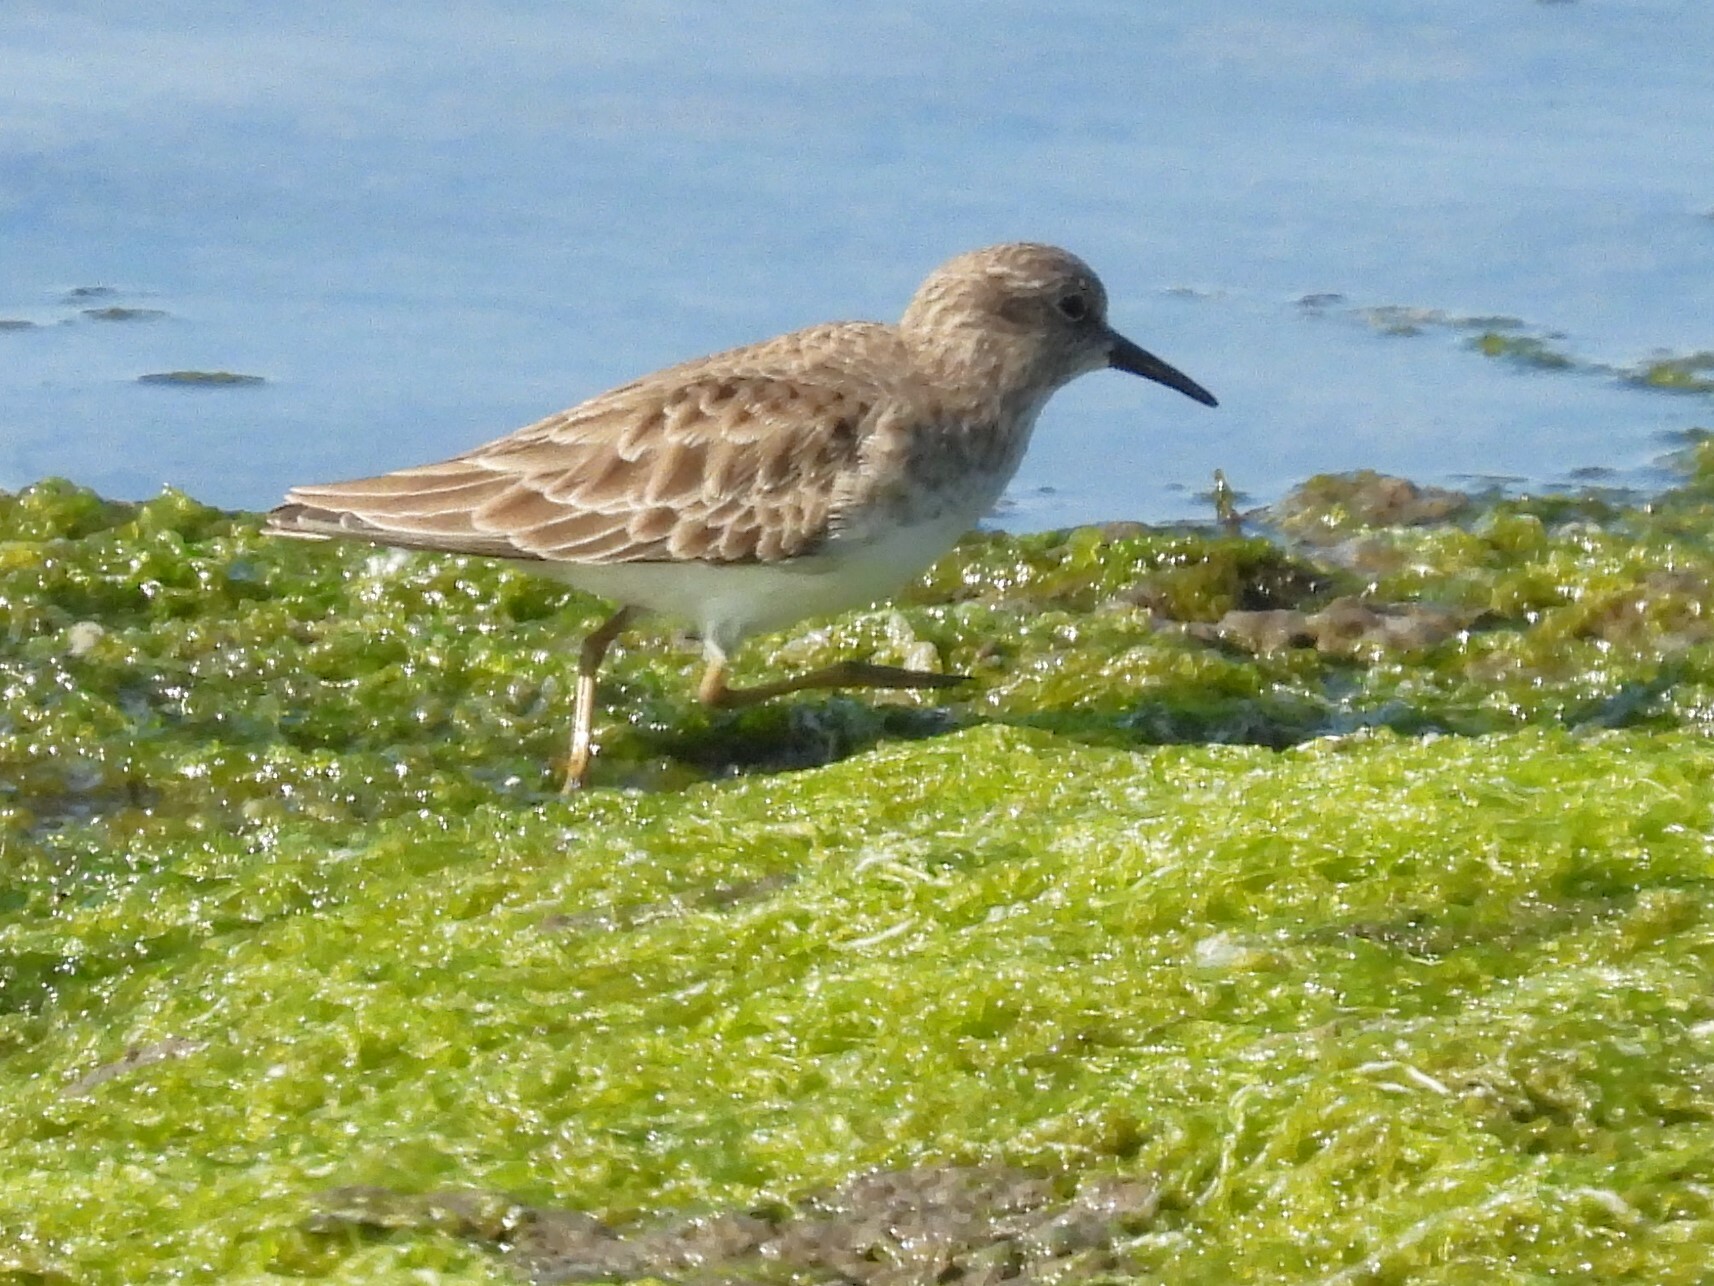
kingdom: Animalia
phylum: Chordata
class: Aves
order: Charadriiformes
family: Scolopacidae
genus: Calidris
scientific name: Calidris minutilla
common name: Least sandpiper
